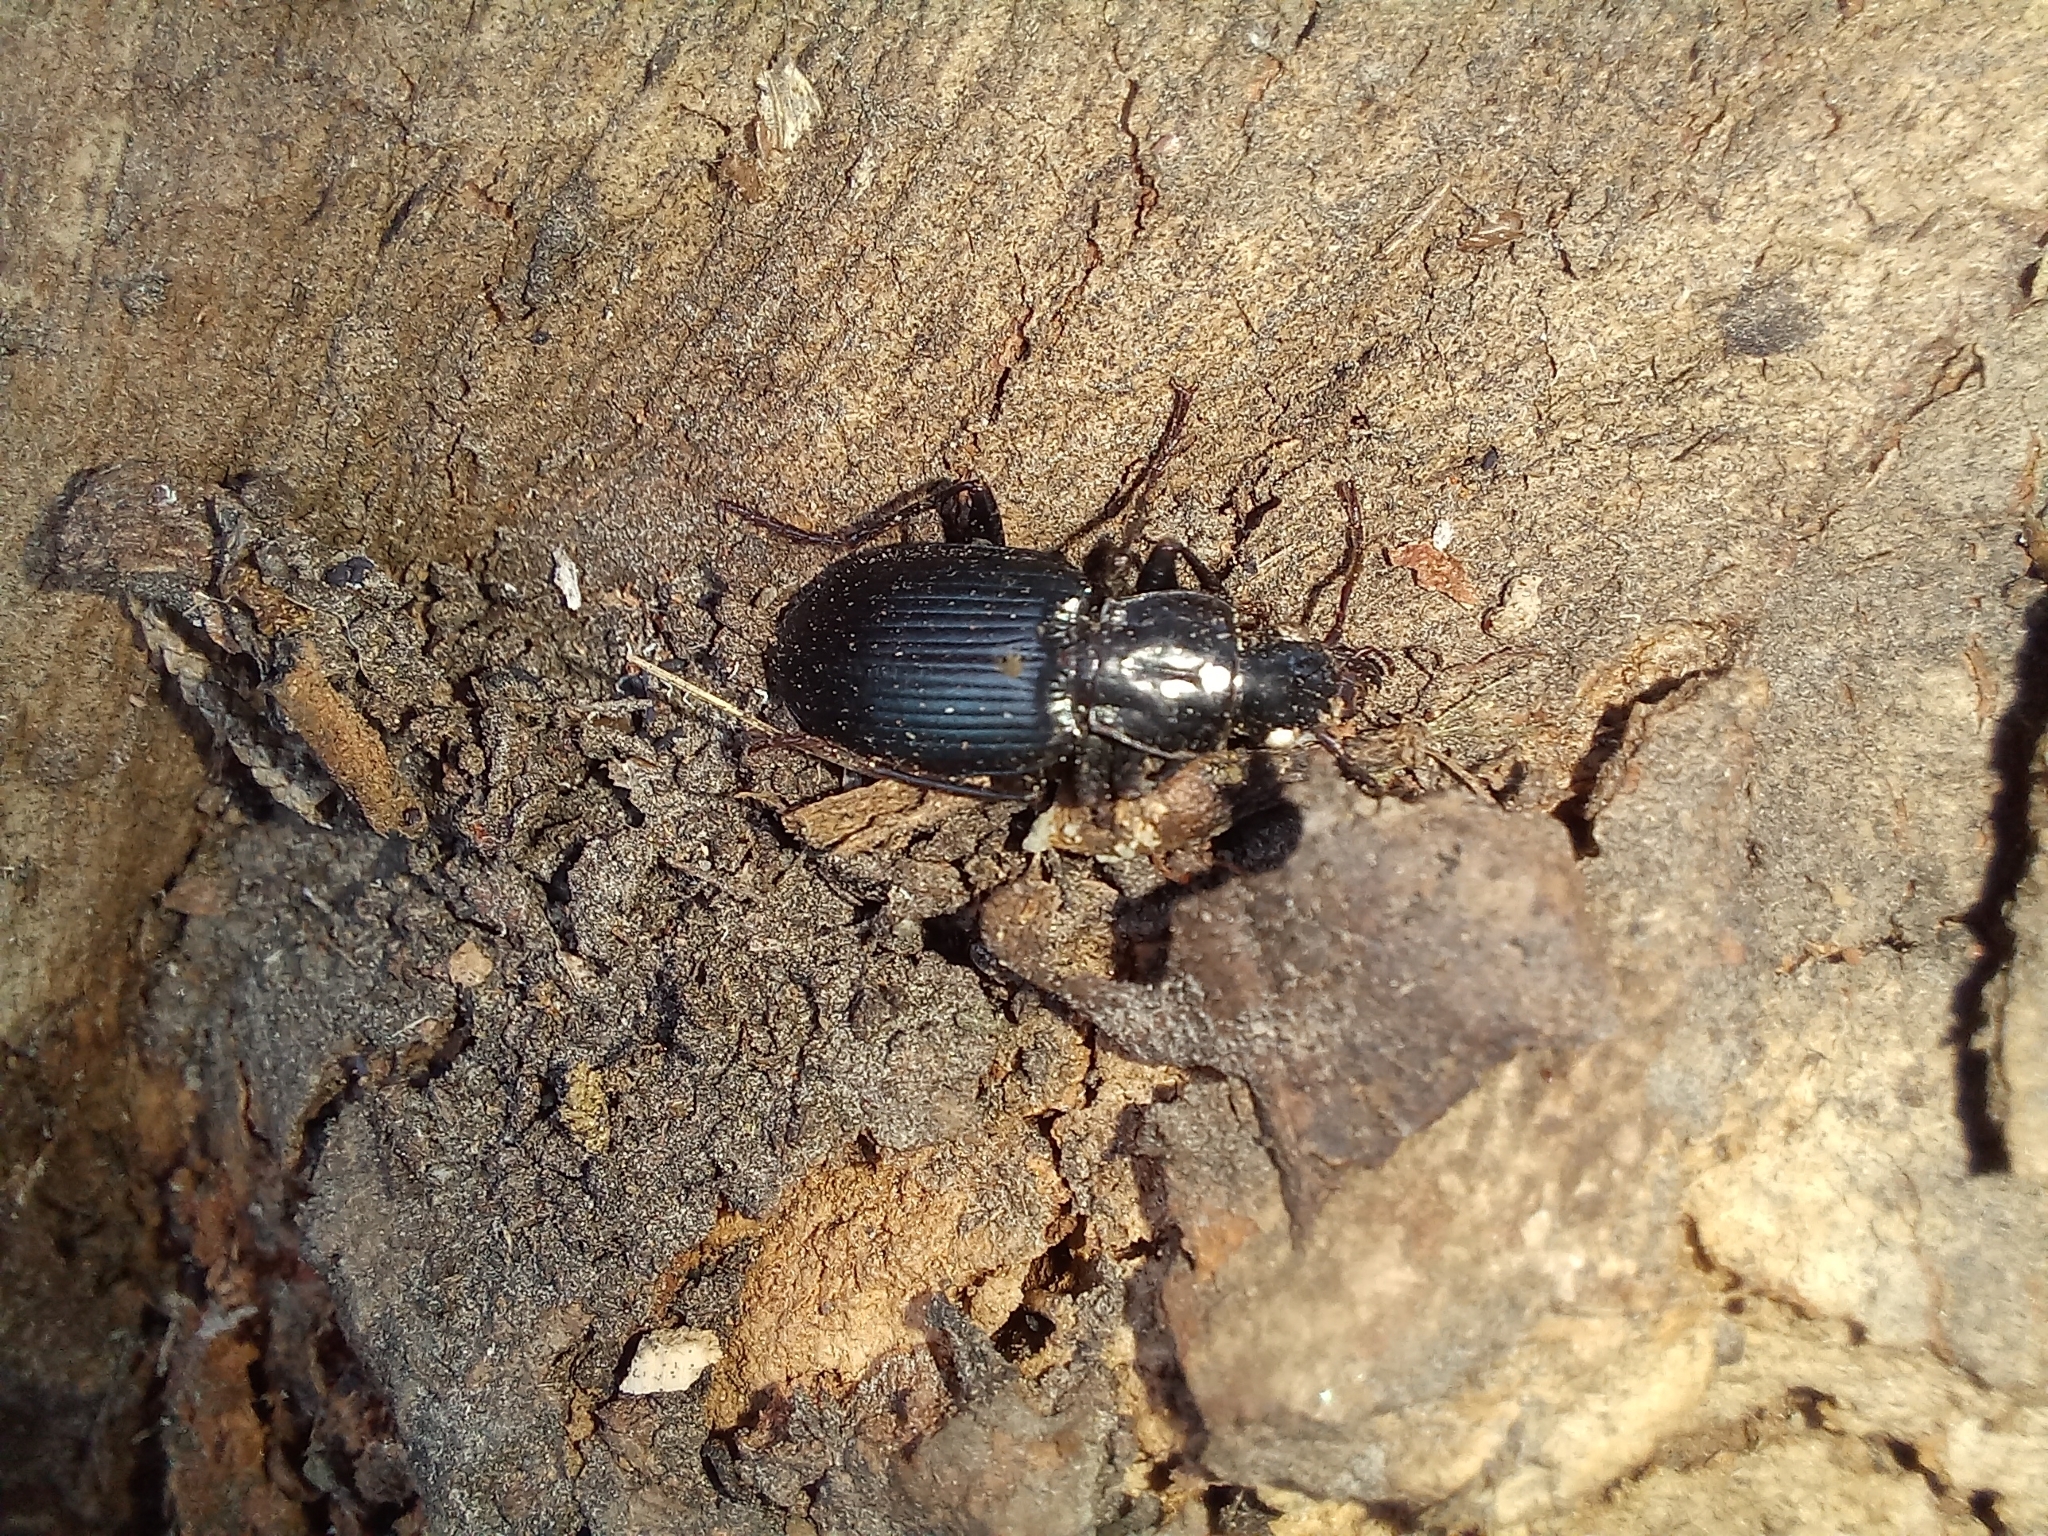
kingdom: Animalia
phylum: Arthropoda
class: Insecta
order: Coleoptera
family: Carabidae
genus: Laemostenus
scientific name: Laemostenus complanatus
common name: Cosmopolitan ground beetle
